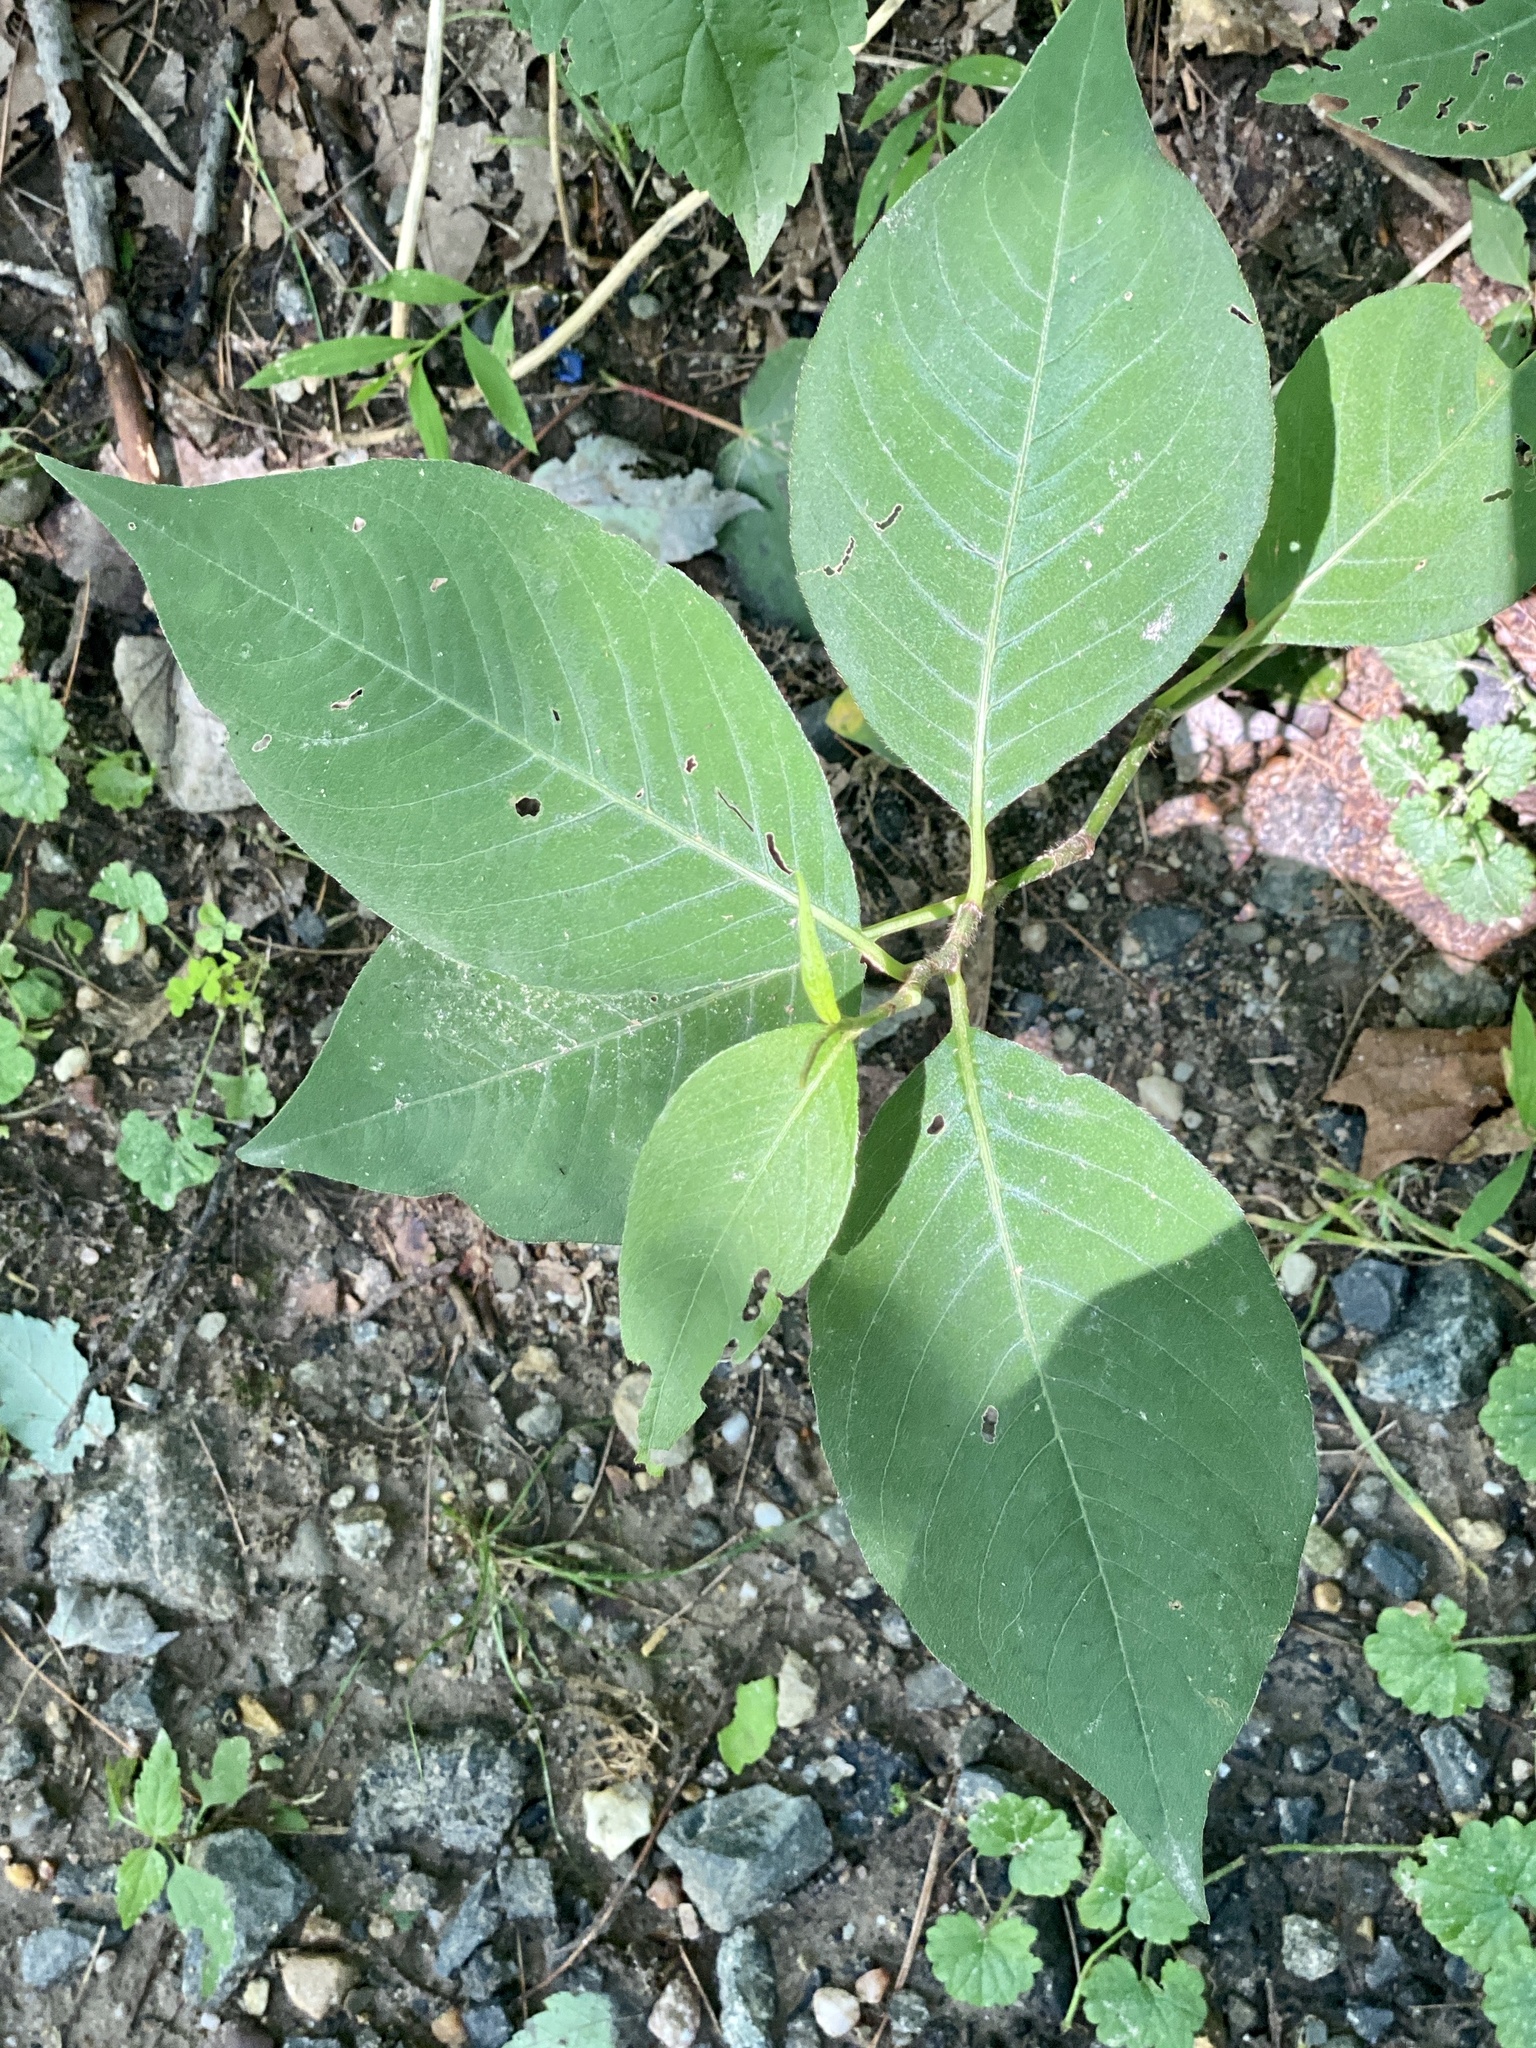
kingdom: Plantae
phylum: Tracheophyta
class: Magnoliopsida
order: Caryophyllales
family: Polygonaceae
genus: Persicaria
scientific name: Persicaria virginiana
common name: Jumpseed
